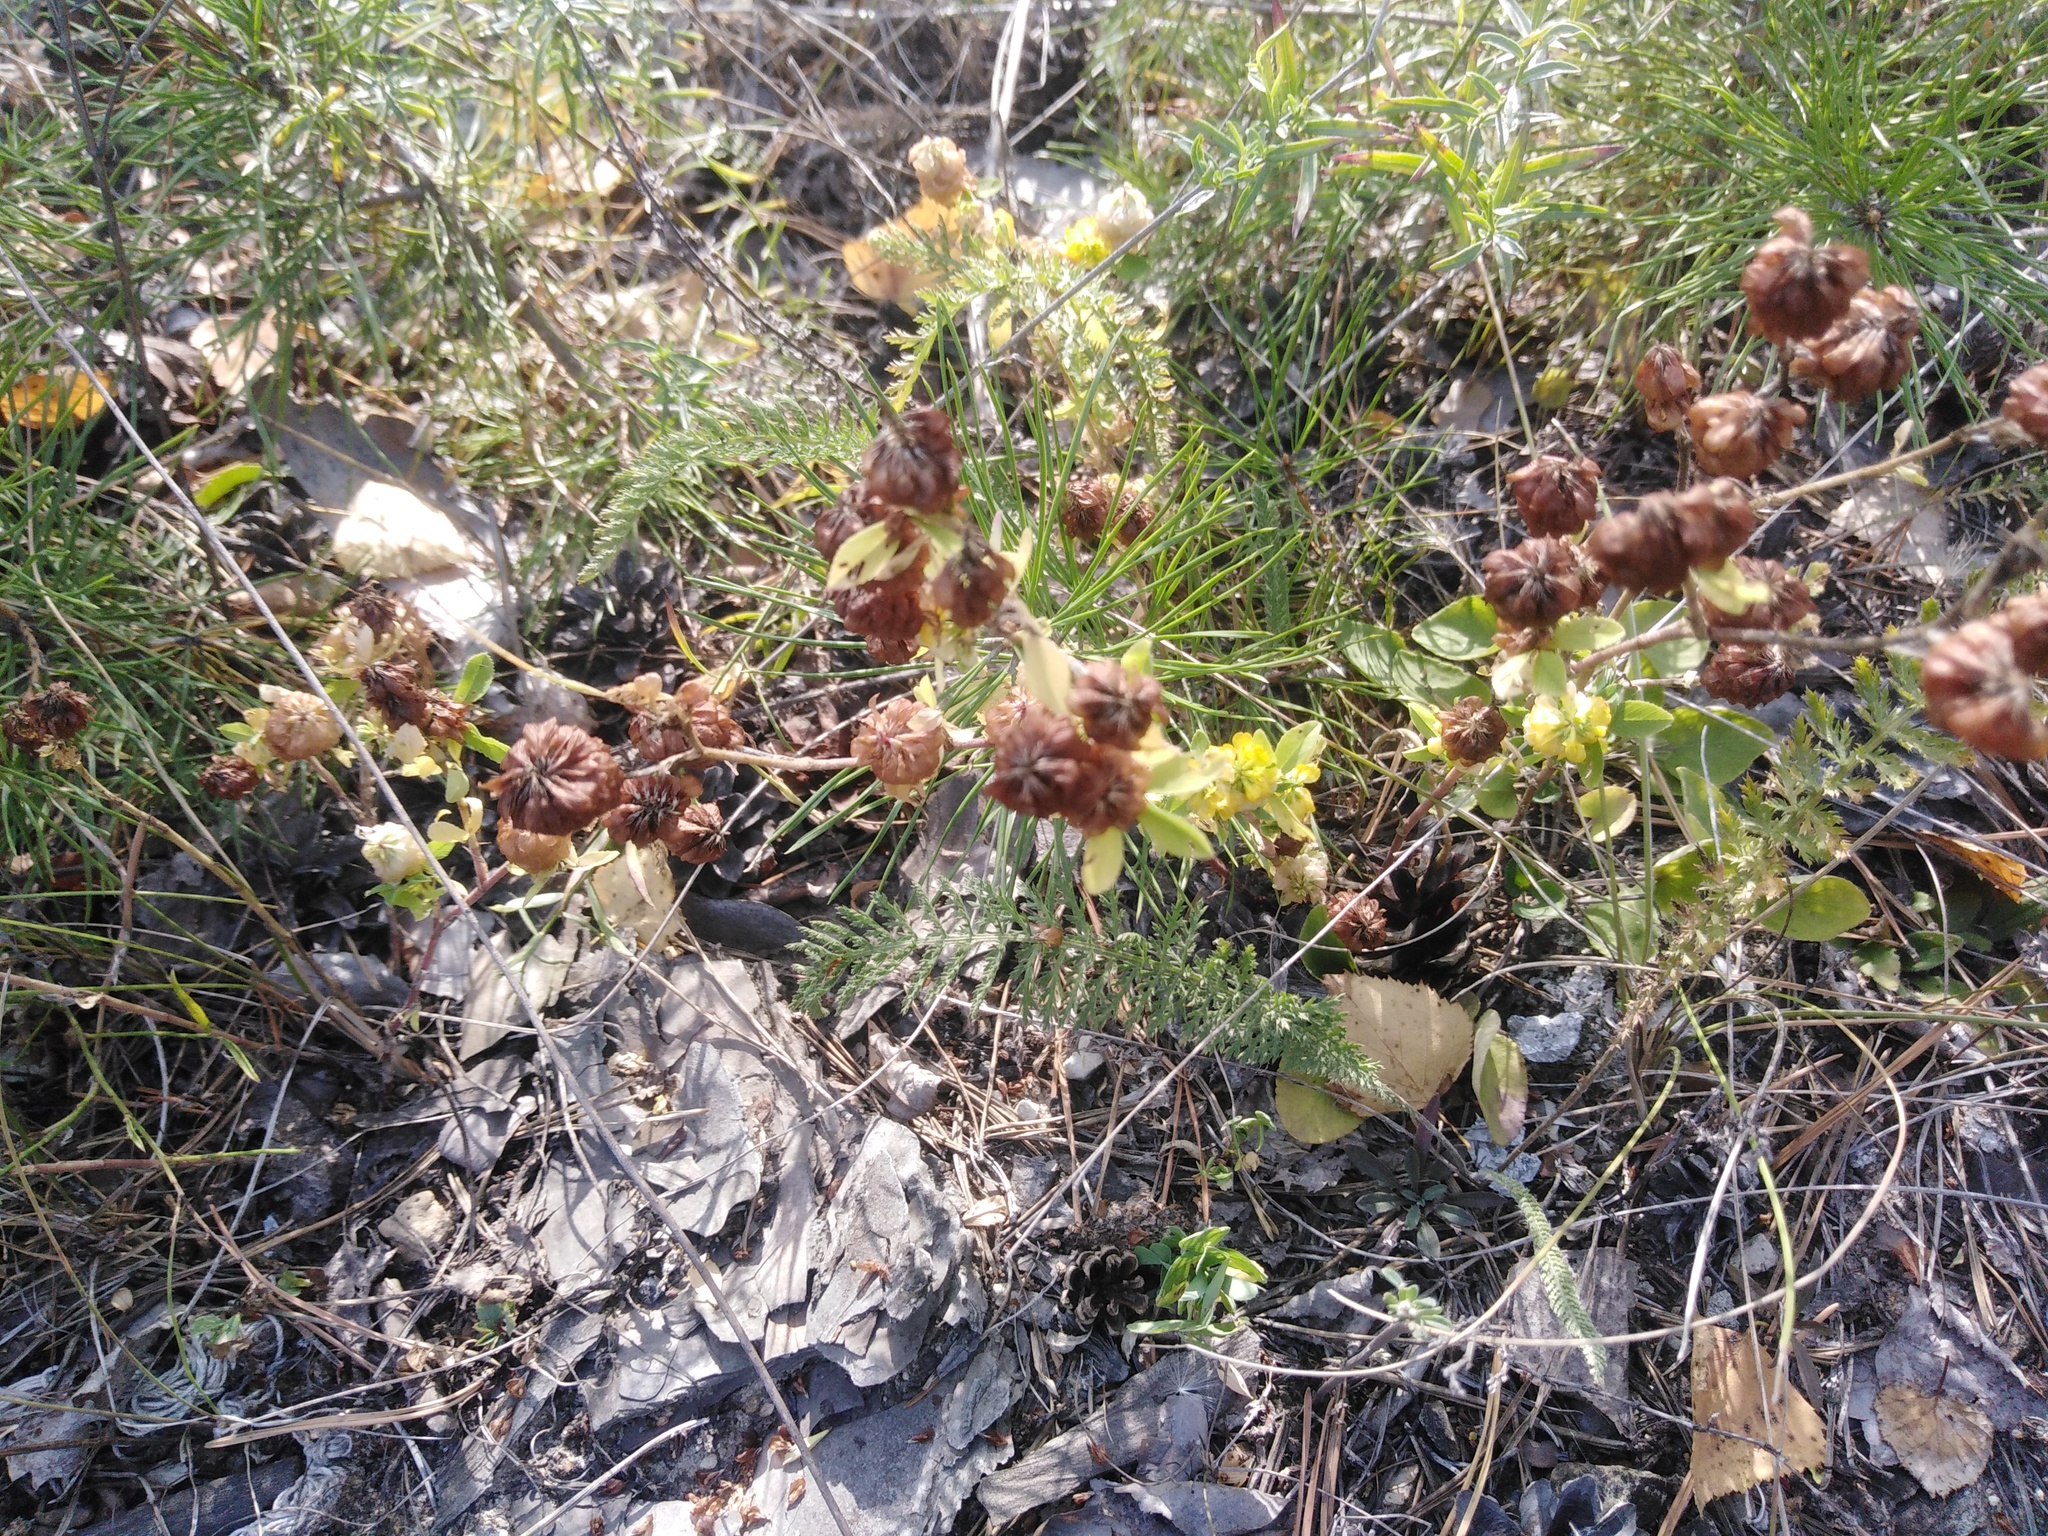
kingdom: Plantae
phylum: Tracheophyta
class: Magnoliopsida
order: Fabales
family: Fabaceae
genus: Trifolium
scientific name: Trifolium aureum
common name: Golden clover
